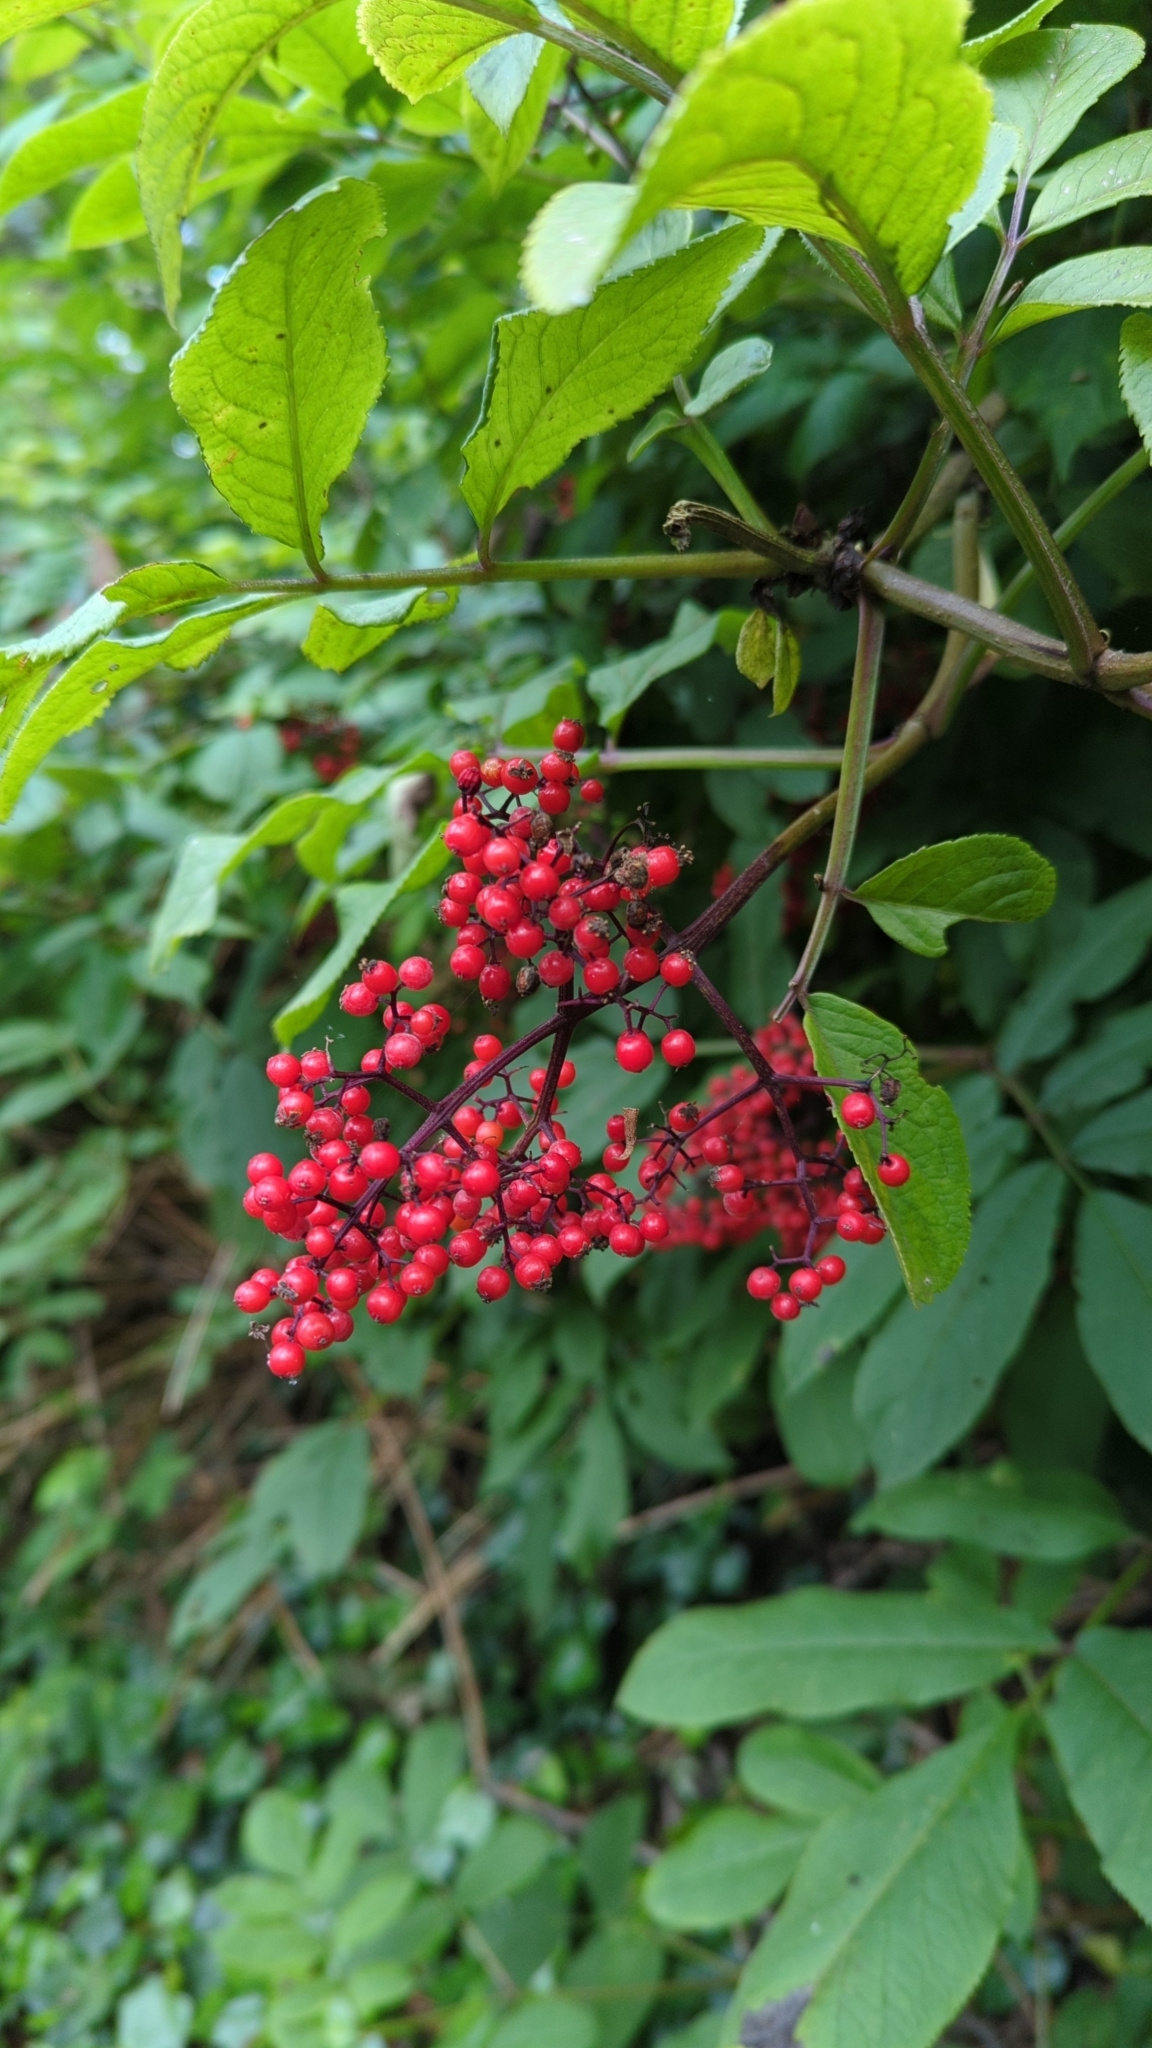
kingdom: Plantae
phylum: Tracheophyta
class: Magnoliopsida
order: Dipsacales
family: Viburnaceae
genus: Sambucus
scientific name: Sambucus racemosa
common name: Red-berried elder
